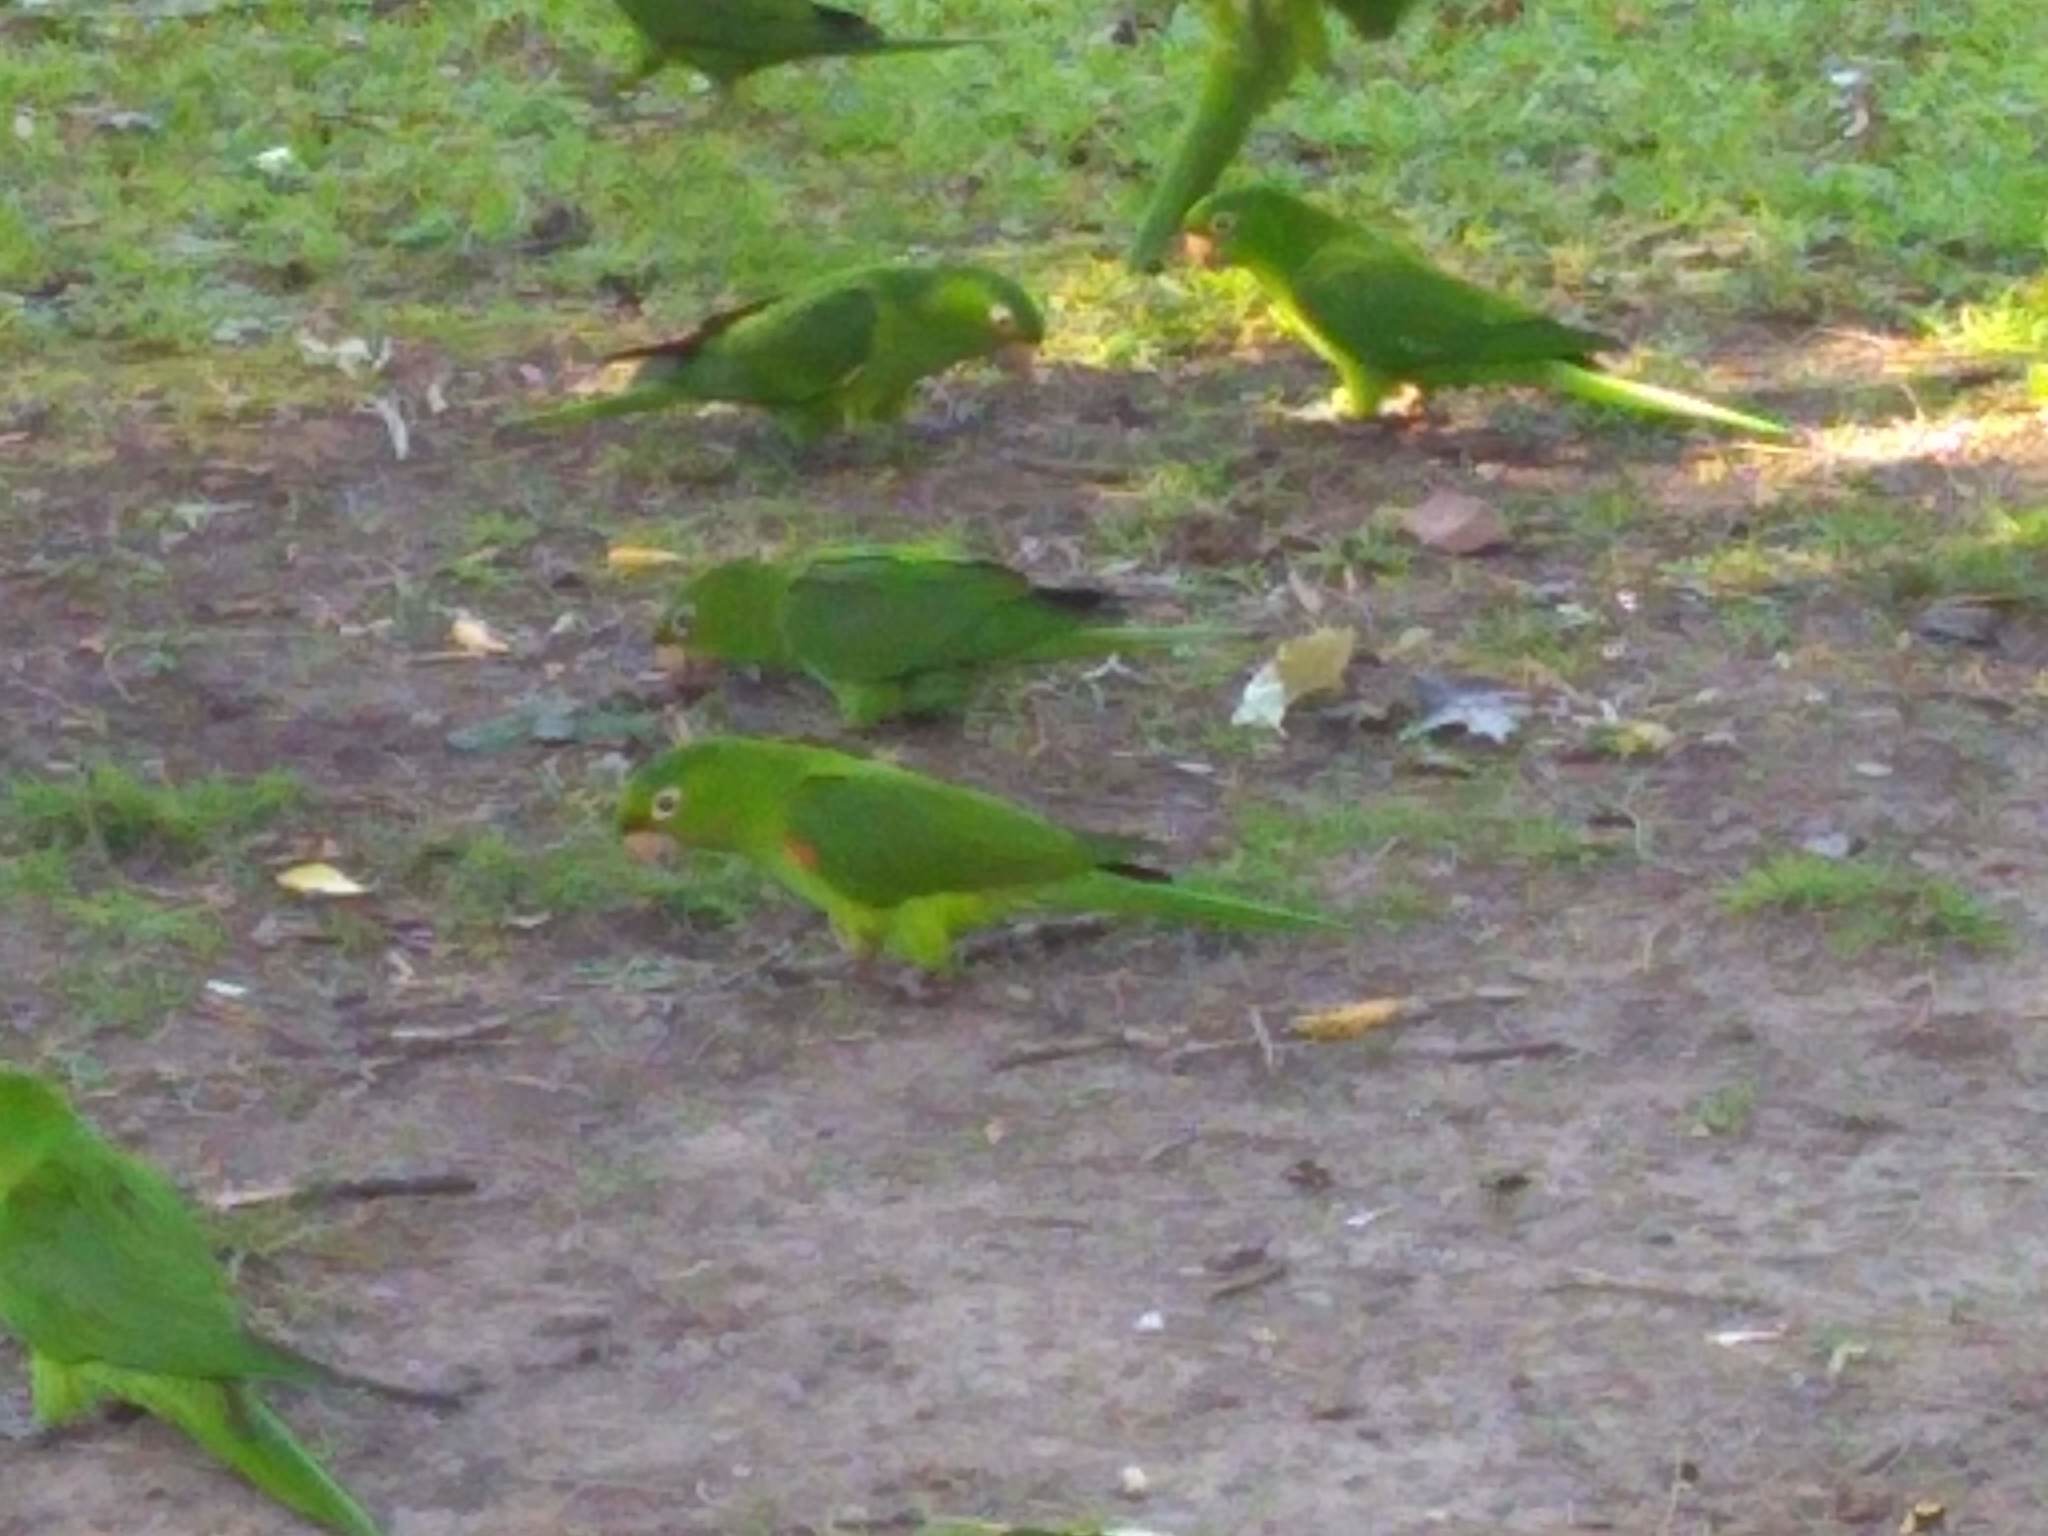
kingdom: Animalia
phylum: Chordata
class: Aves
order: Psittaciformes
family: Psittacidae
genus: Aratinga
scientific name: Aratinga leucophthalma
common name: White-eyed parakeet
